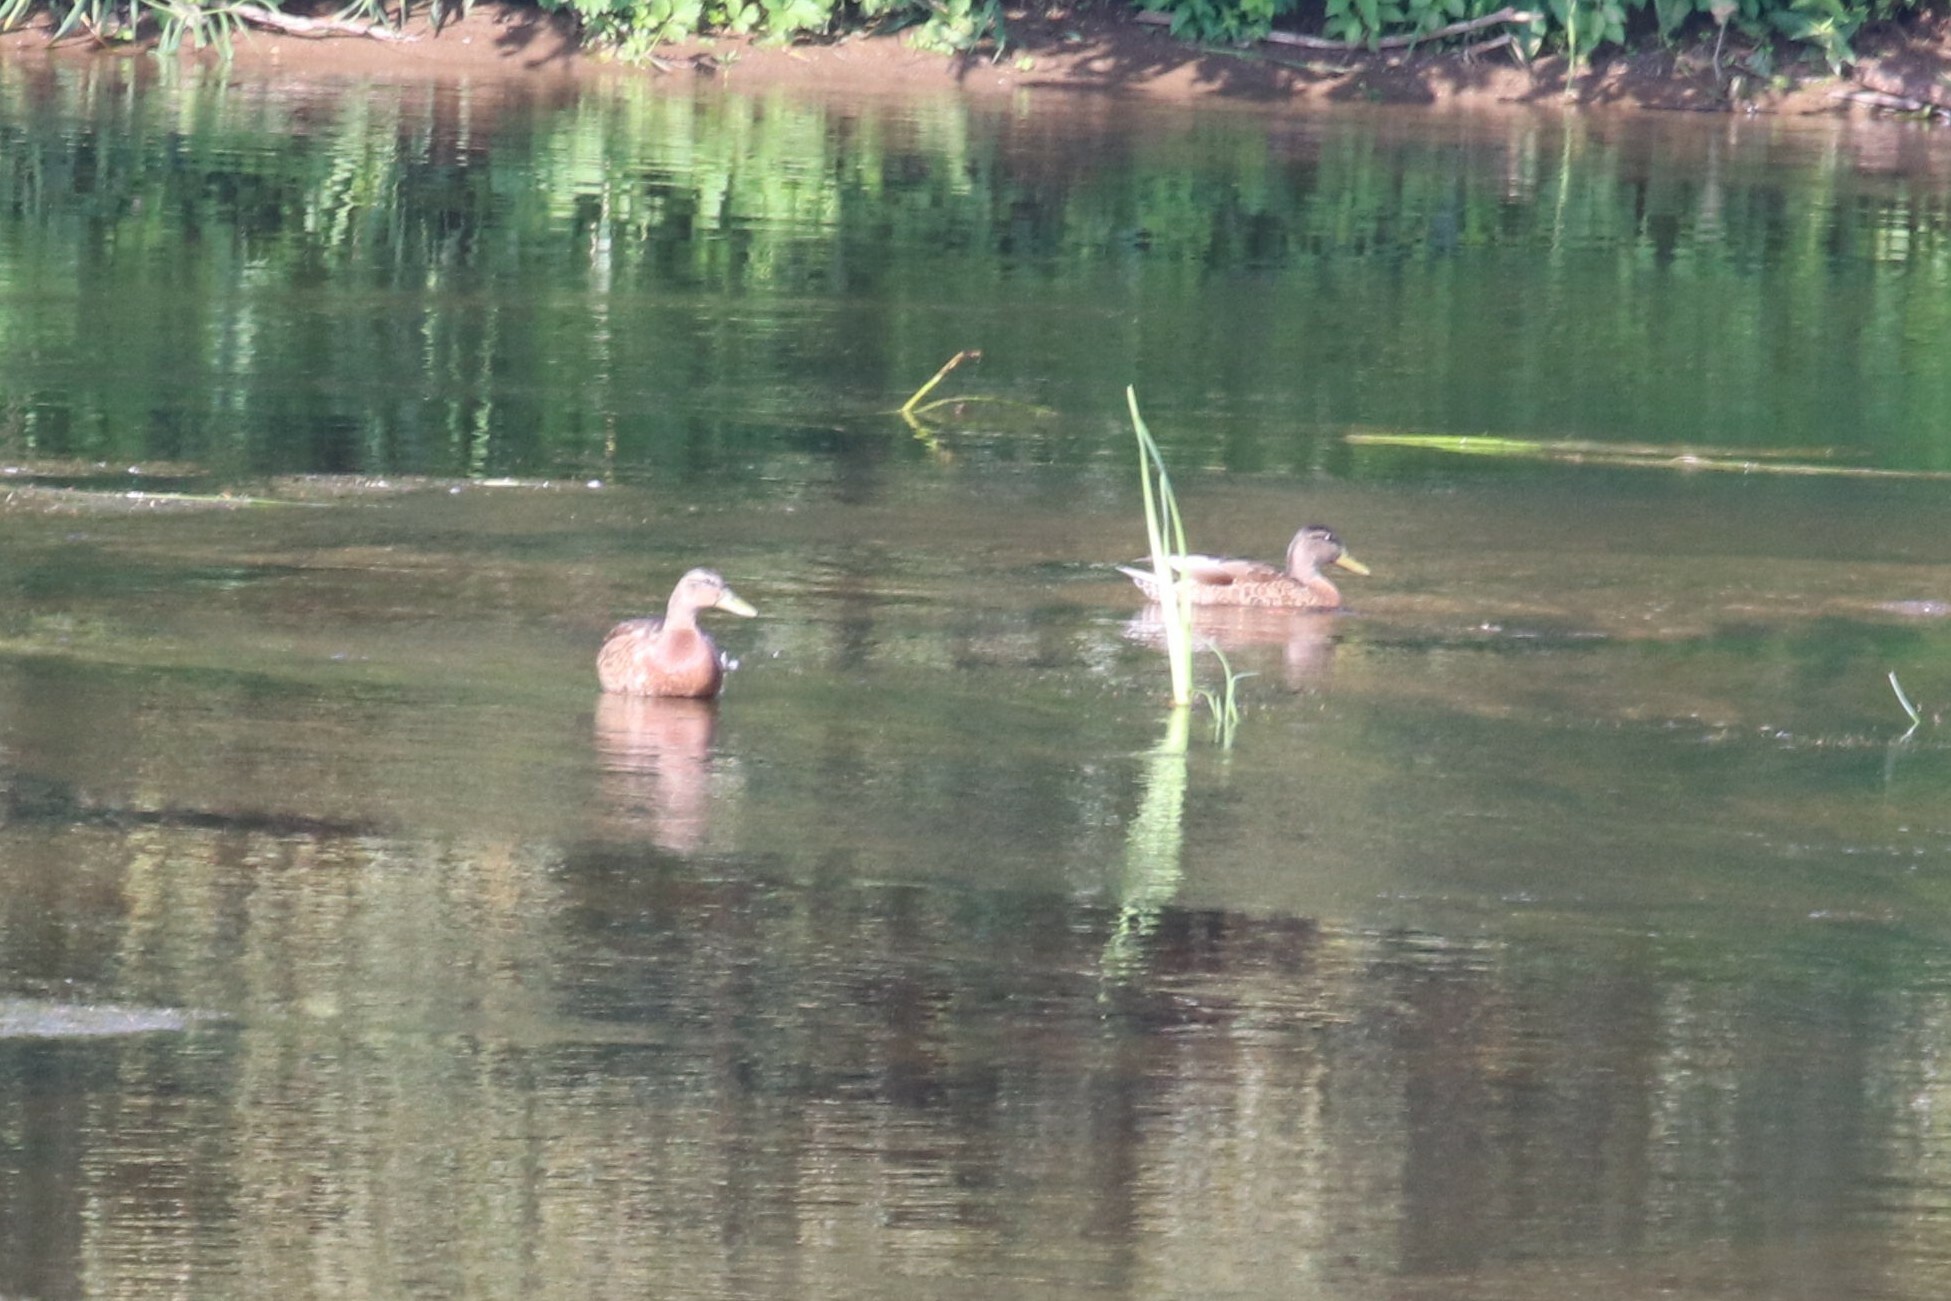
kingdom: Animalia
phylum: Chordata
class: Aves
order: Anseriformes
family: Anatidae
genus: Anas
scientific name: Anas platyrhynchos
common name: Mallard
